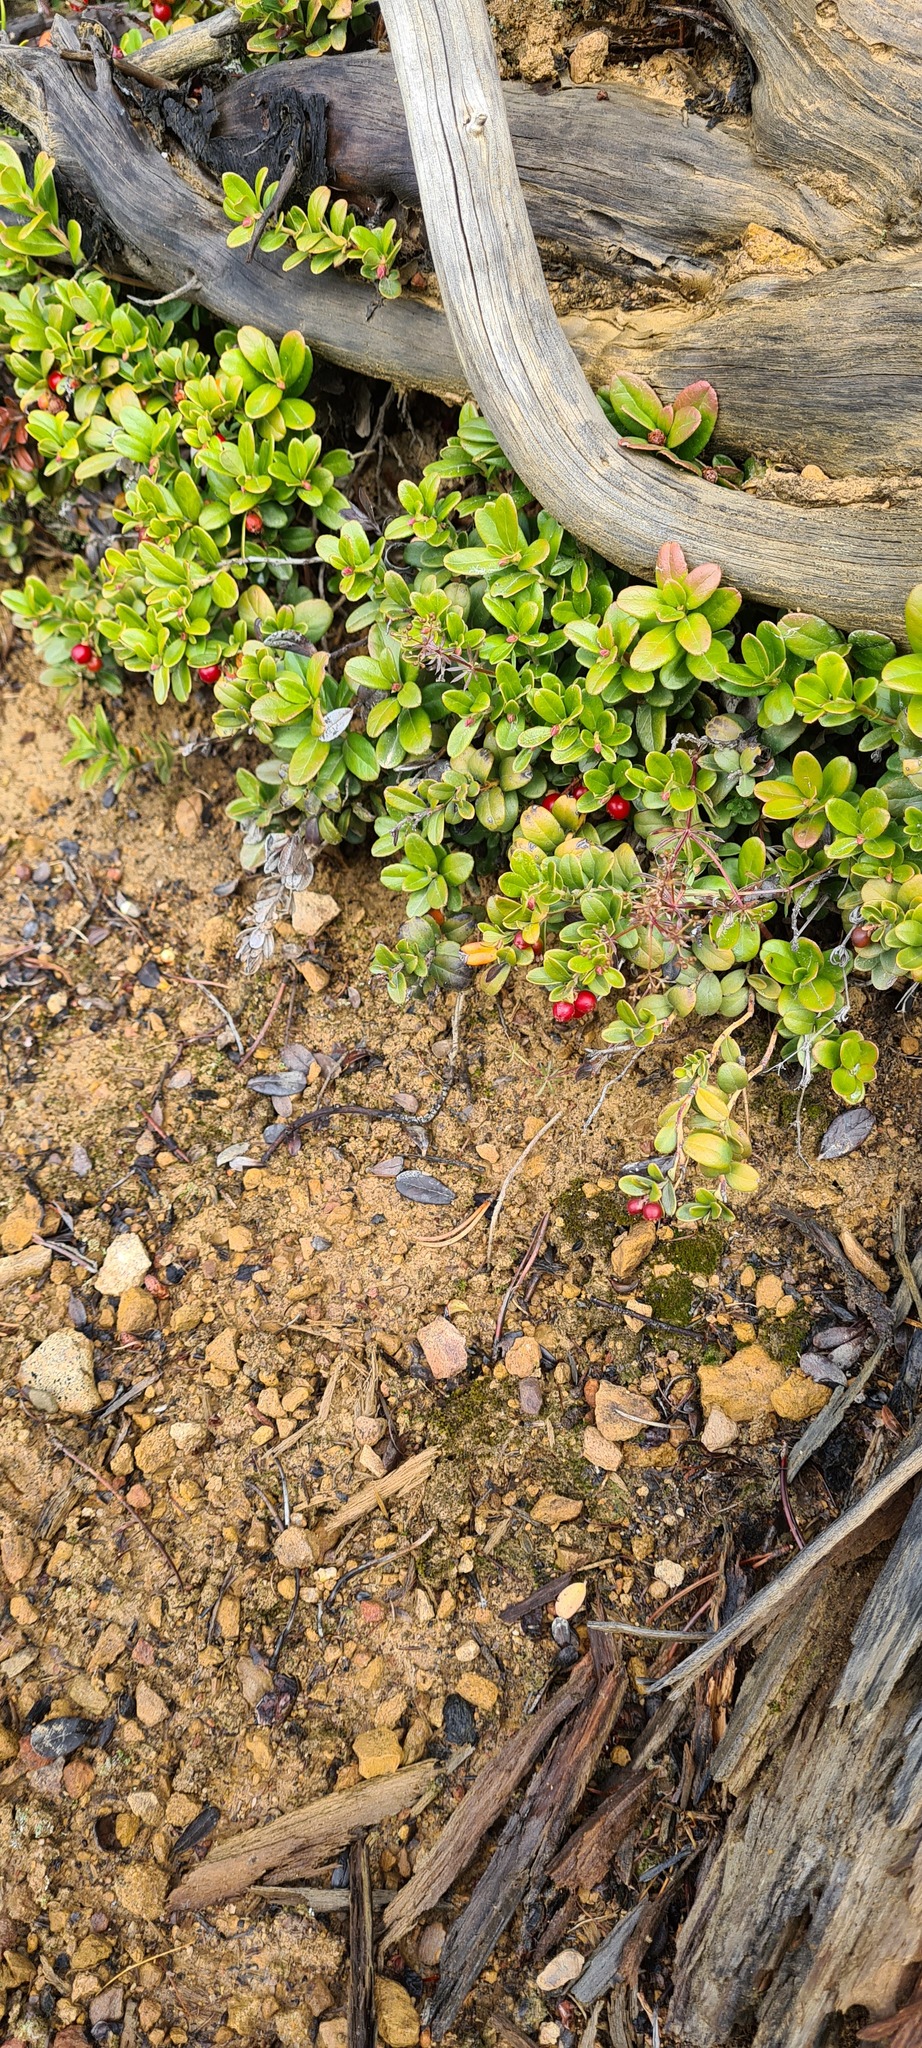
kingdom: Plantae
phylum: Tracheophyta
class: Magnoliopsida
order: Ericales
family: Ericaceae
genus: Vaccinium
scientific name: Vaccinium vitis-idaea
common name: Cowberry
